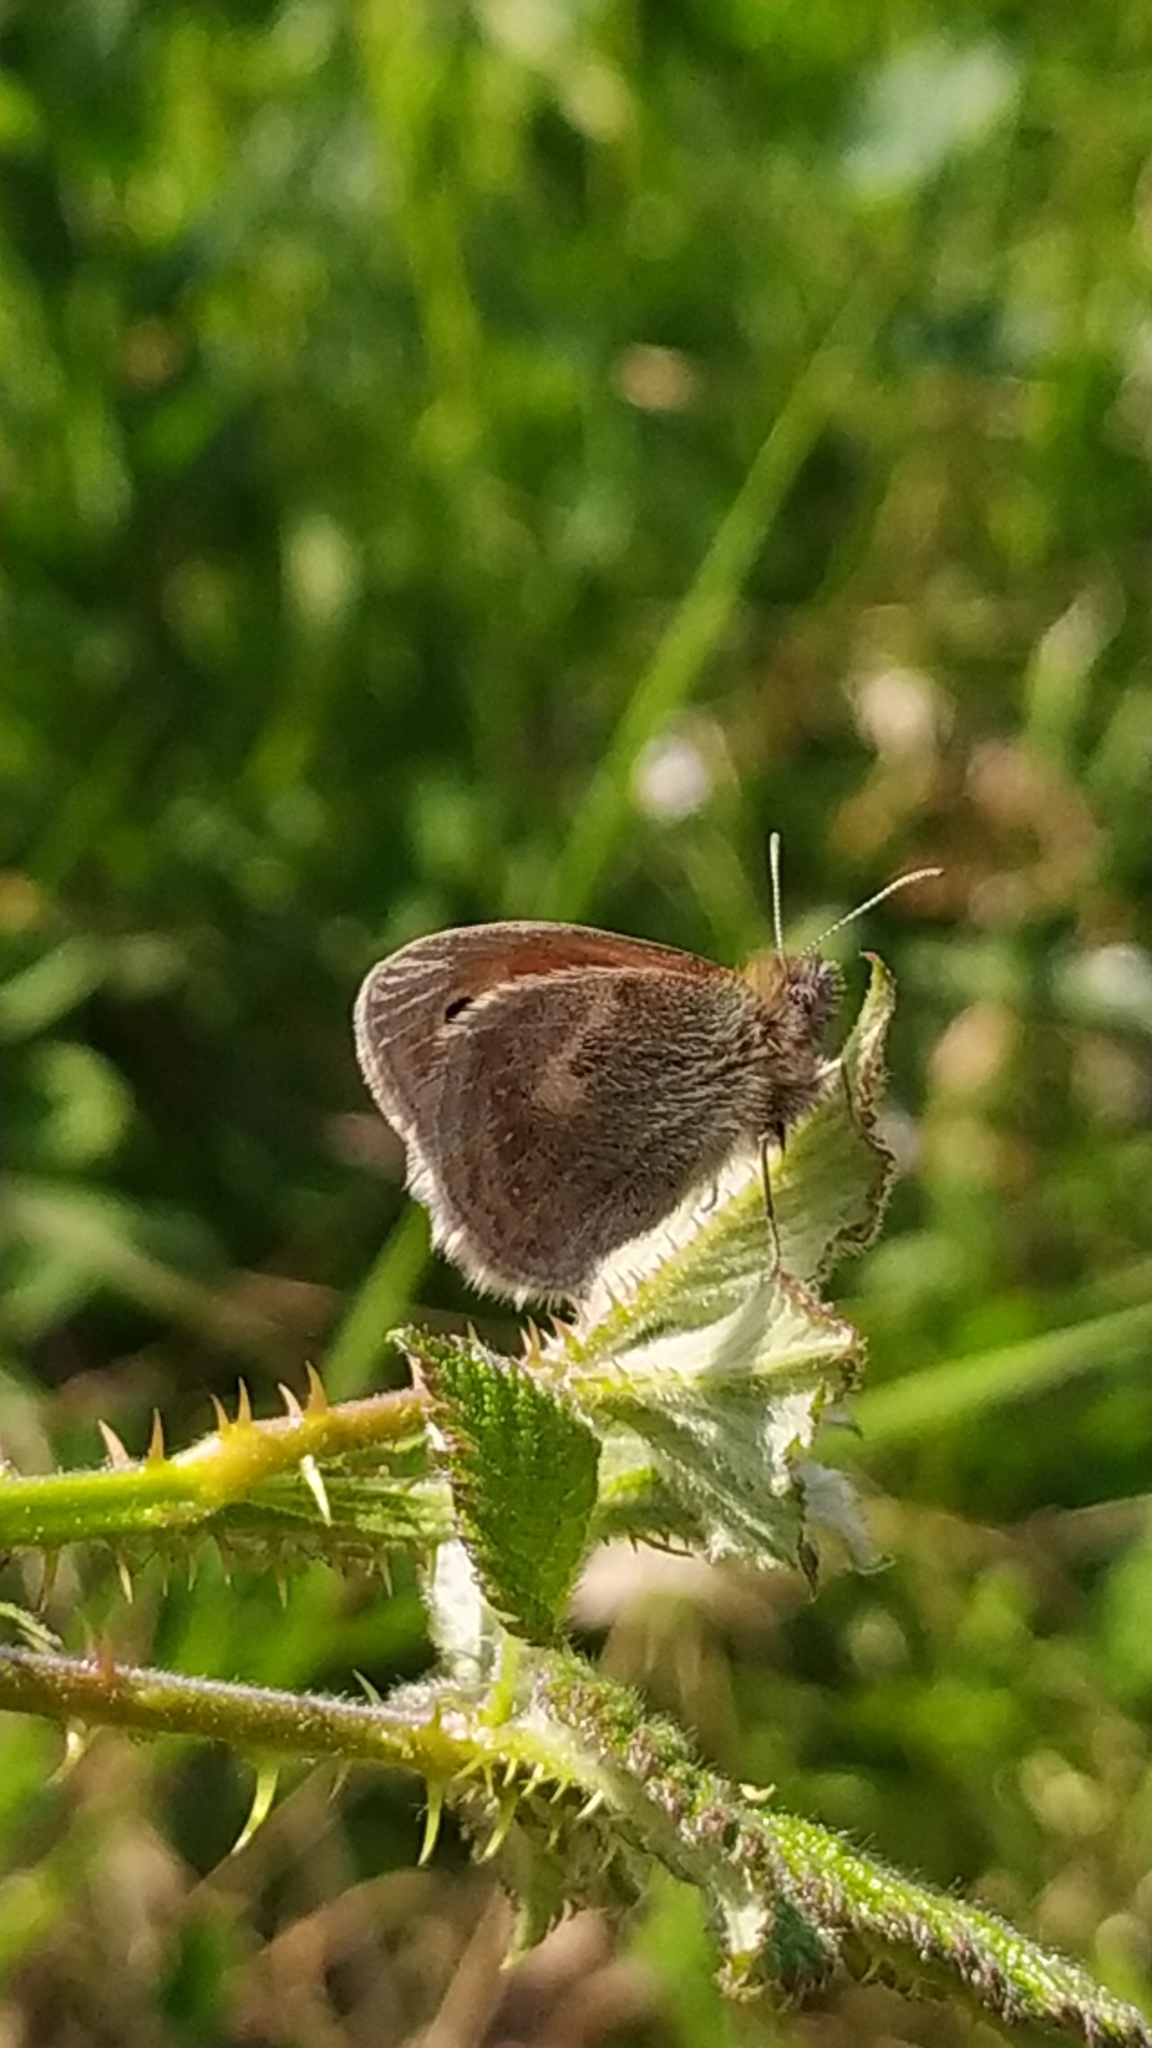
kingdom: Animalia
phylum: Arthropoda
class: Insecta
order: Lepidoptera
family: Nymphalidae
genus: Coenonympha
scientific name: Coenonympha pamphilus
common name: Small heath
